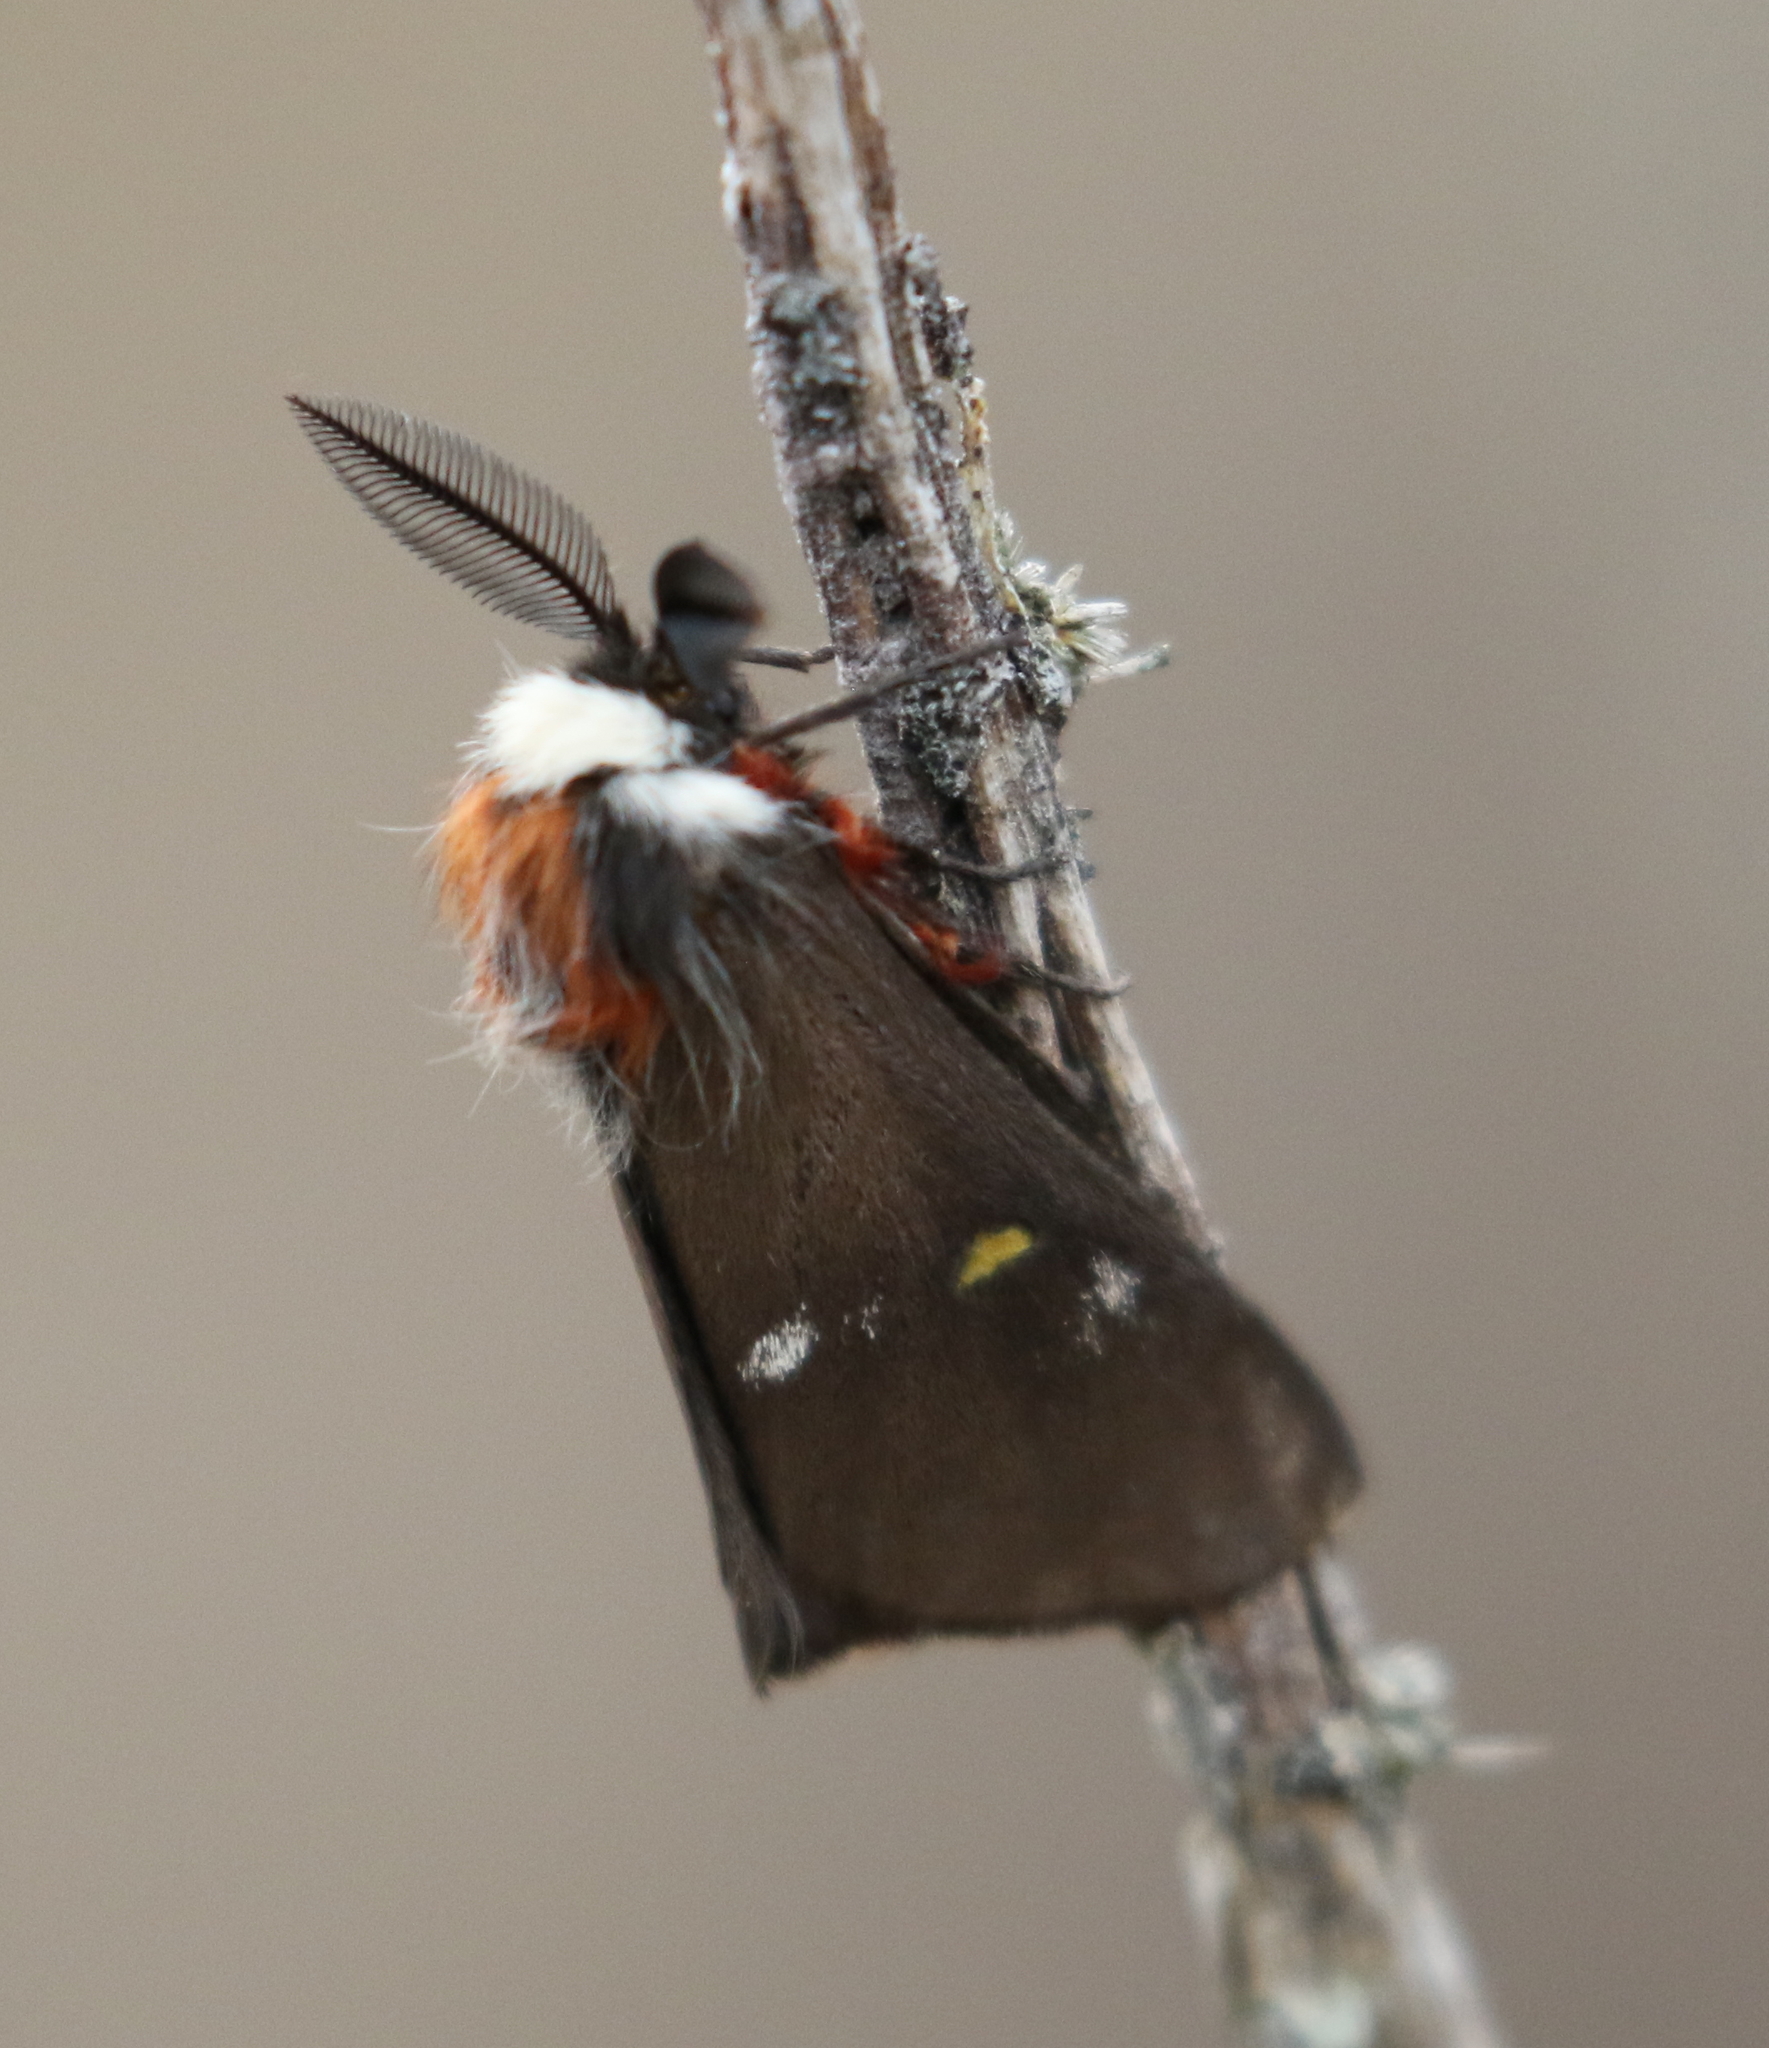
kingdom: Animalia
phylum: Arthropoda
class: Insecta
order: Lepidoptera
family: Saturniidae
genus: Hemileuca
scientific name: Hemileuca grotei
